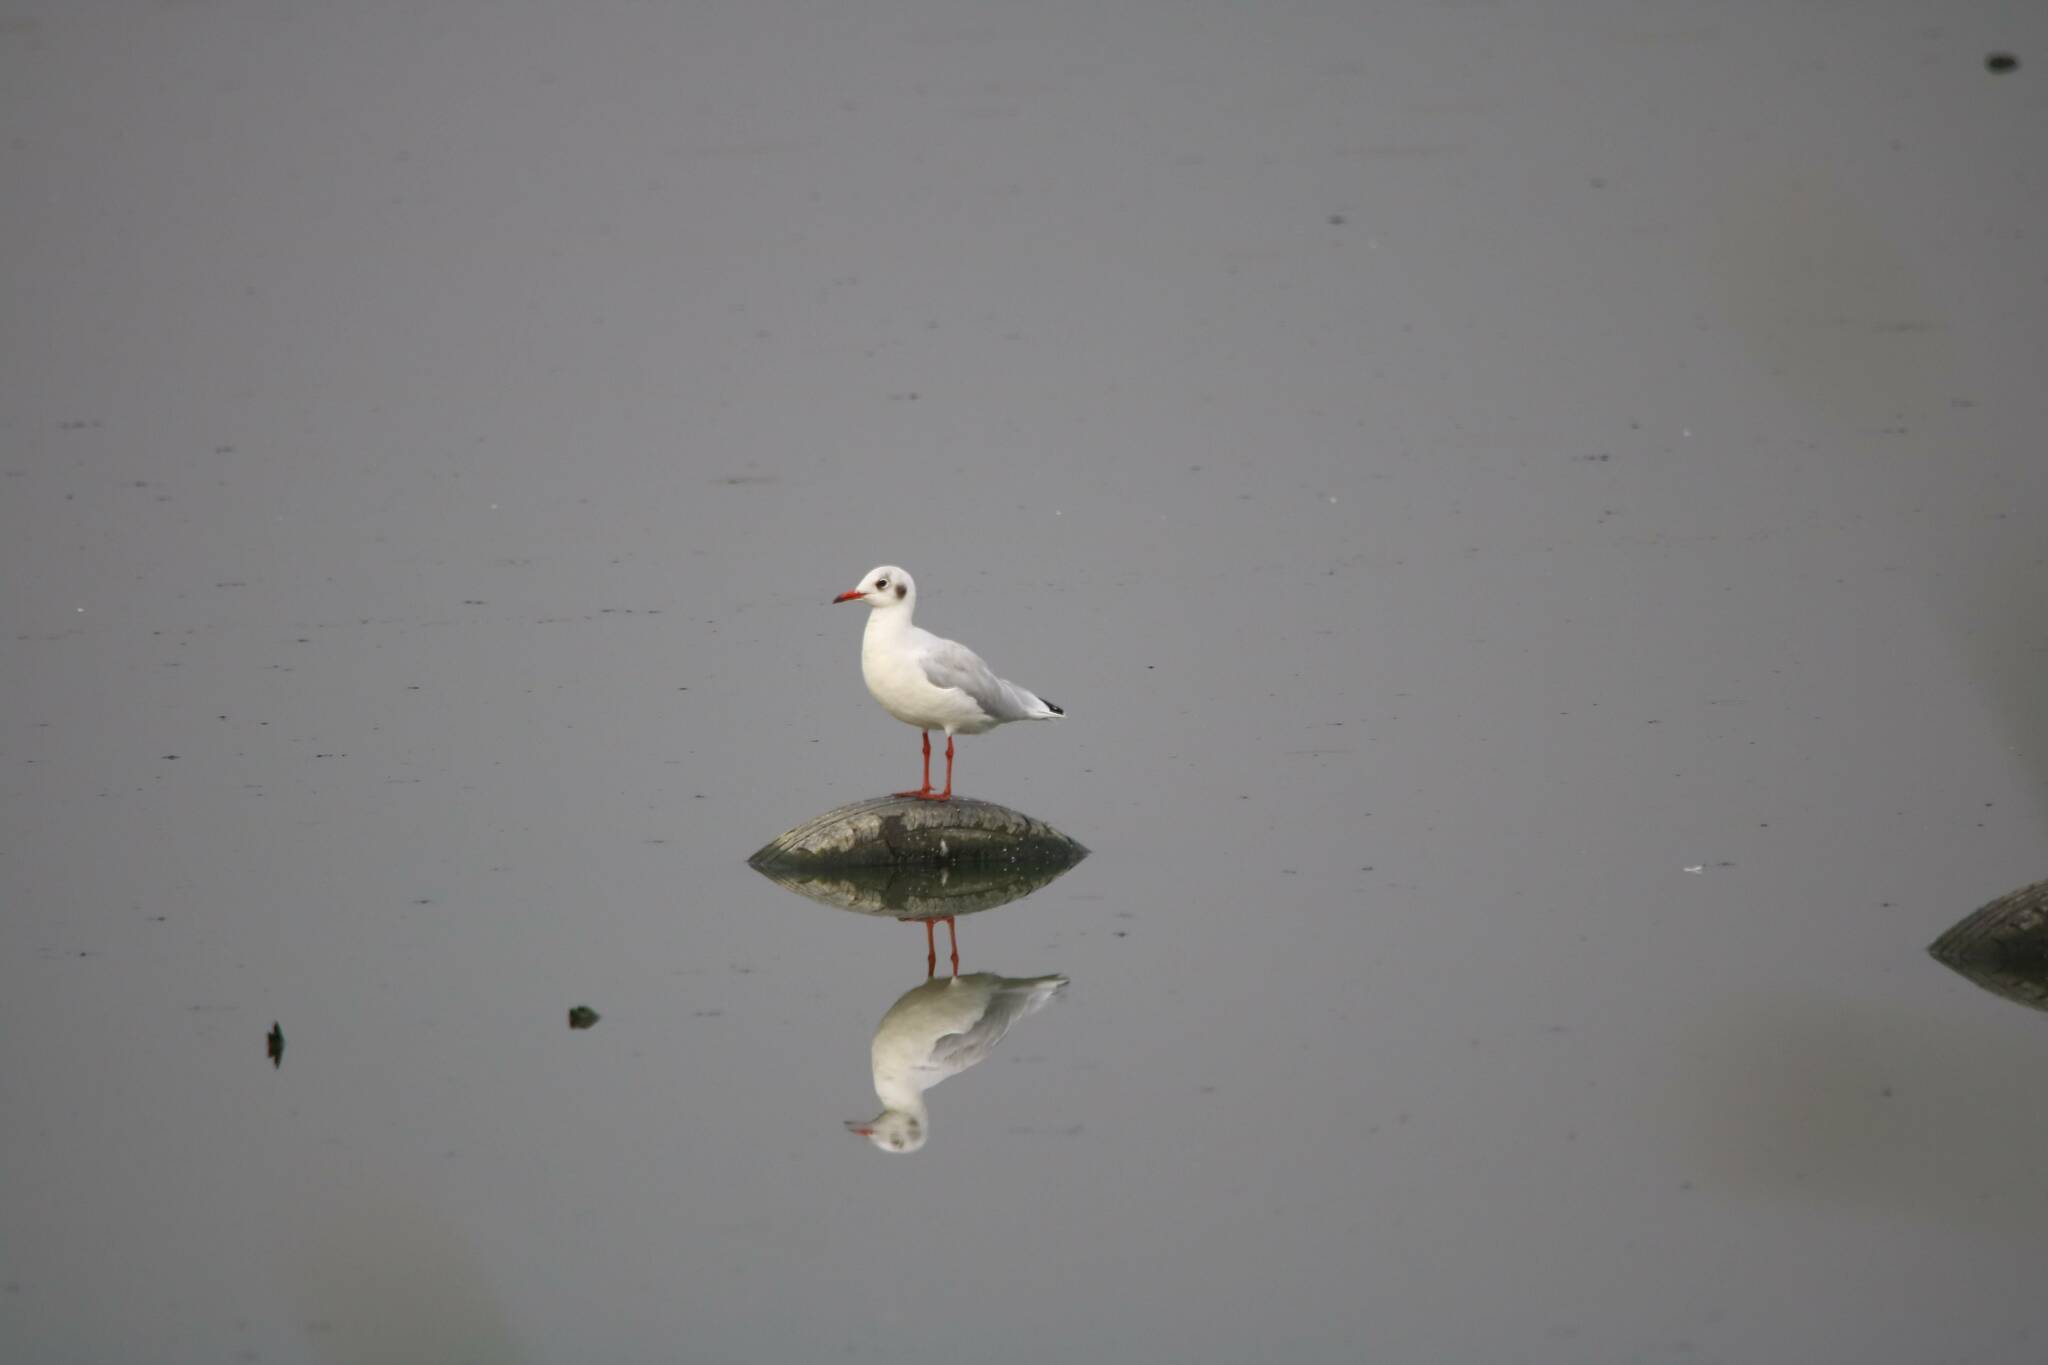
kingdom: Animalia
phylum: Chordata
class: Aves
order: Charadriiformes
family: Laridae
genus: Chroicocephalus
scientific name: Chroicocephalus ridibundus
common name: Black-headed gull
